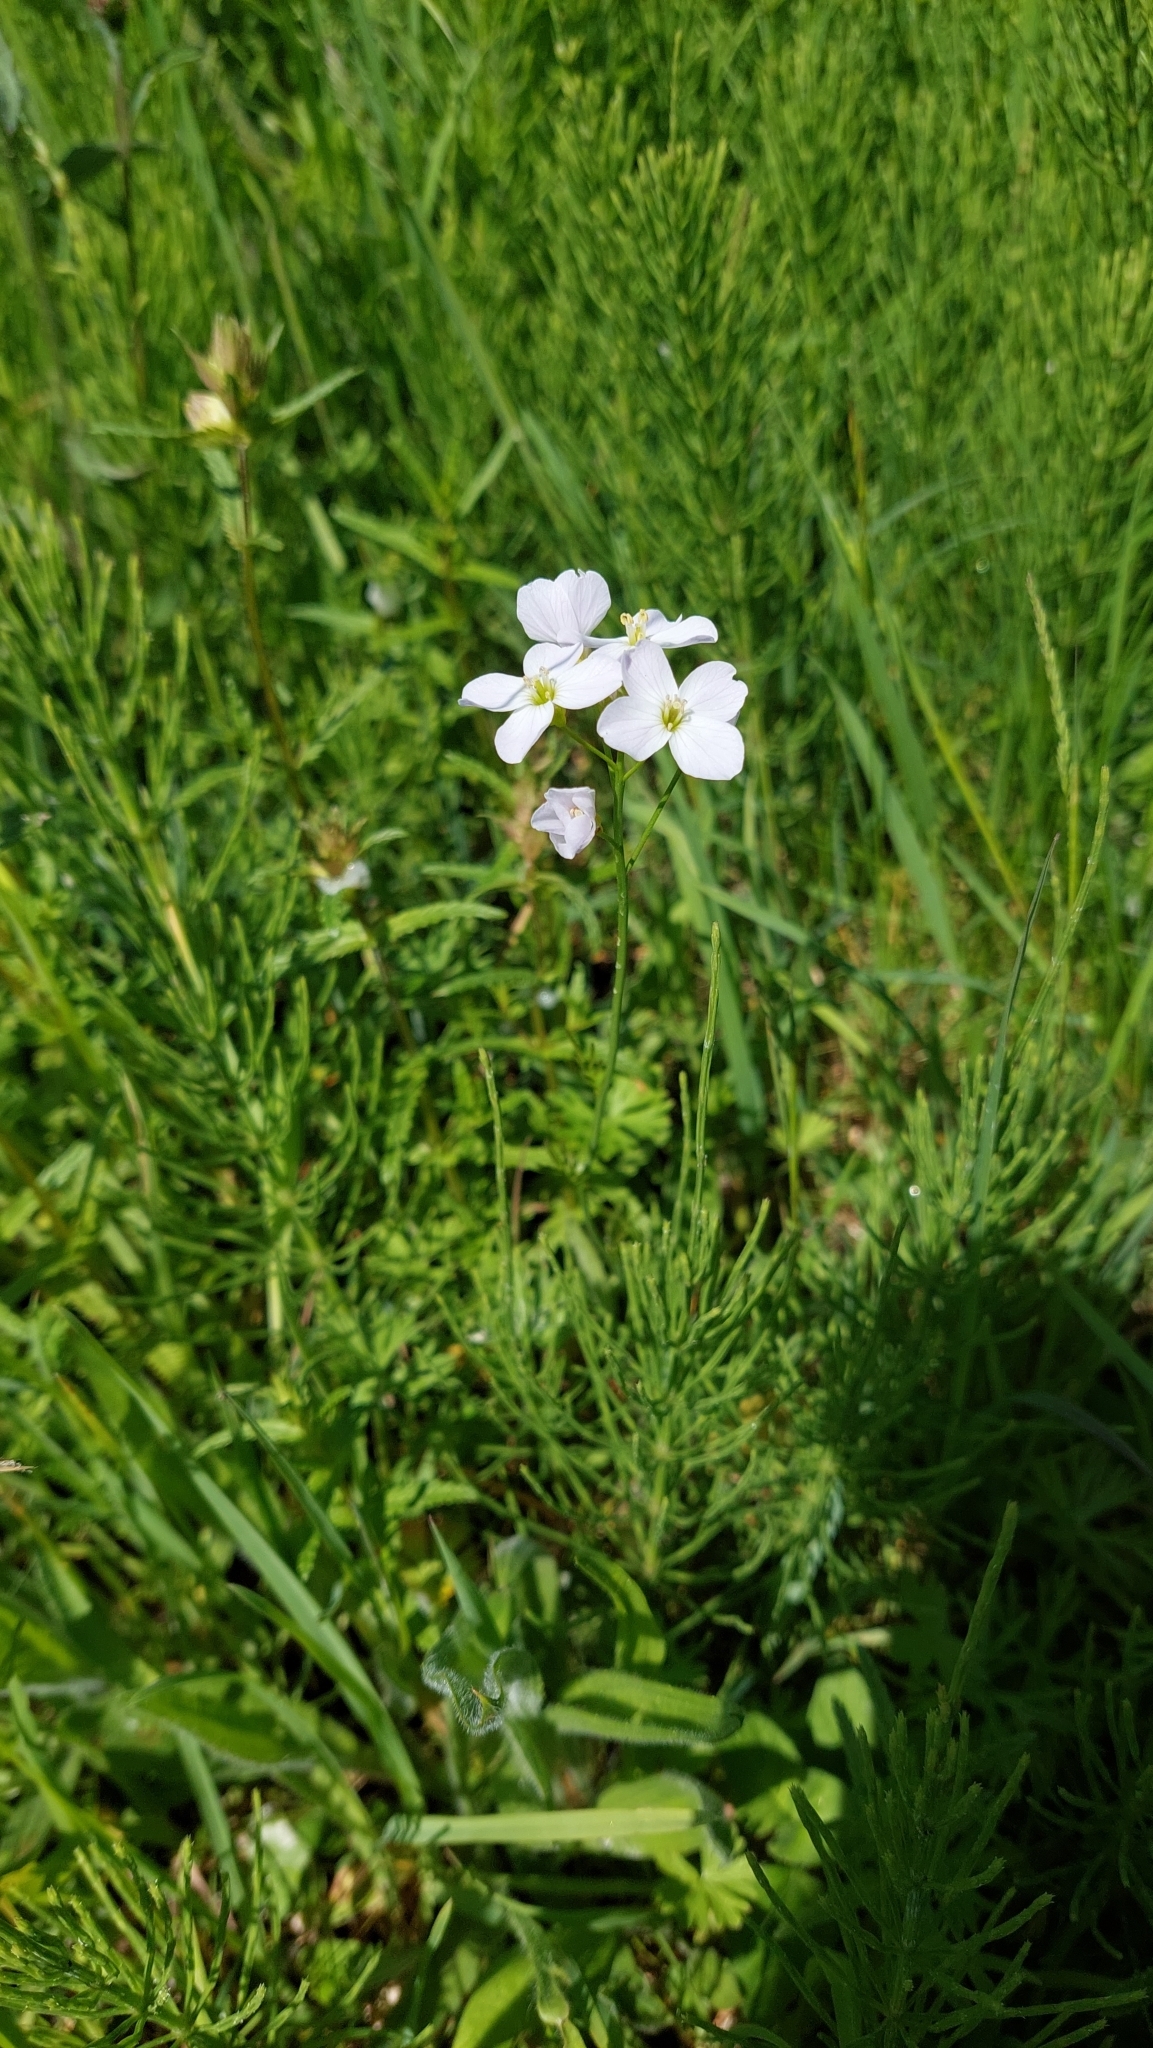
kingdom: Plantae
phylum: Tracheophyta
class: Magnoliopsida
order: Brassicales
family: Brassicaceae
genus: Cardamine
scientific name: Cardamine pratensis
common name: Cuckoo flower
